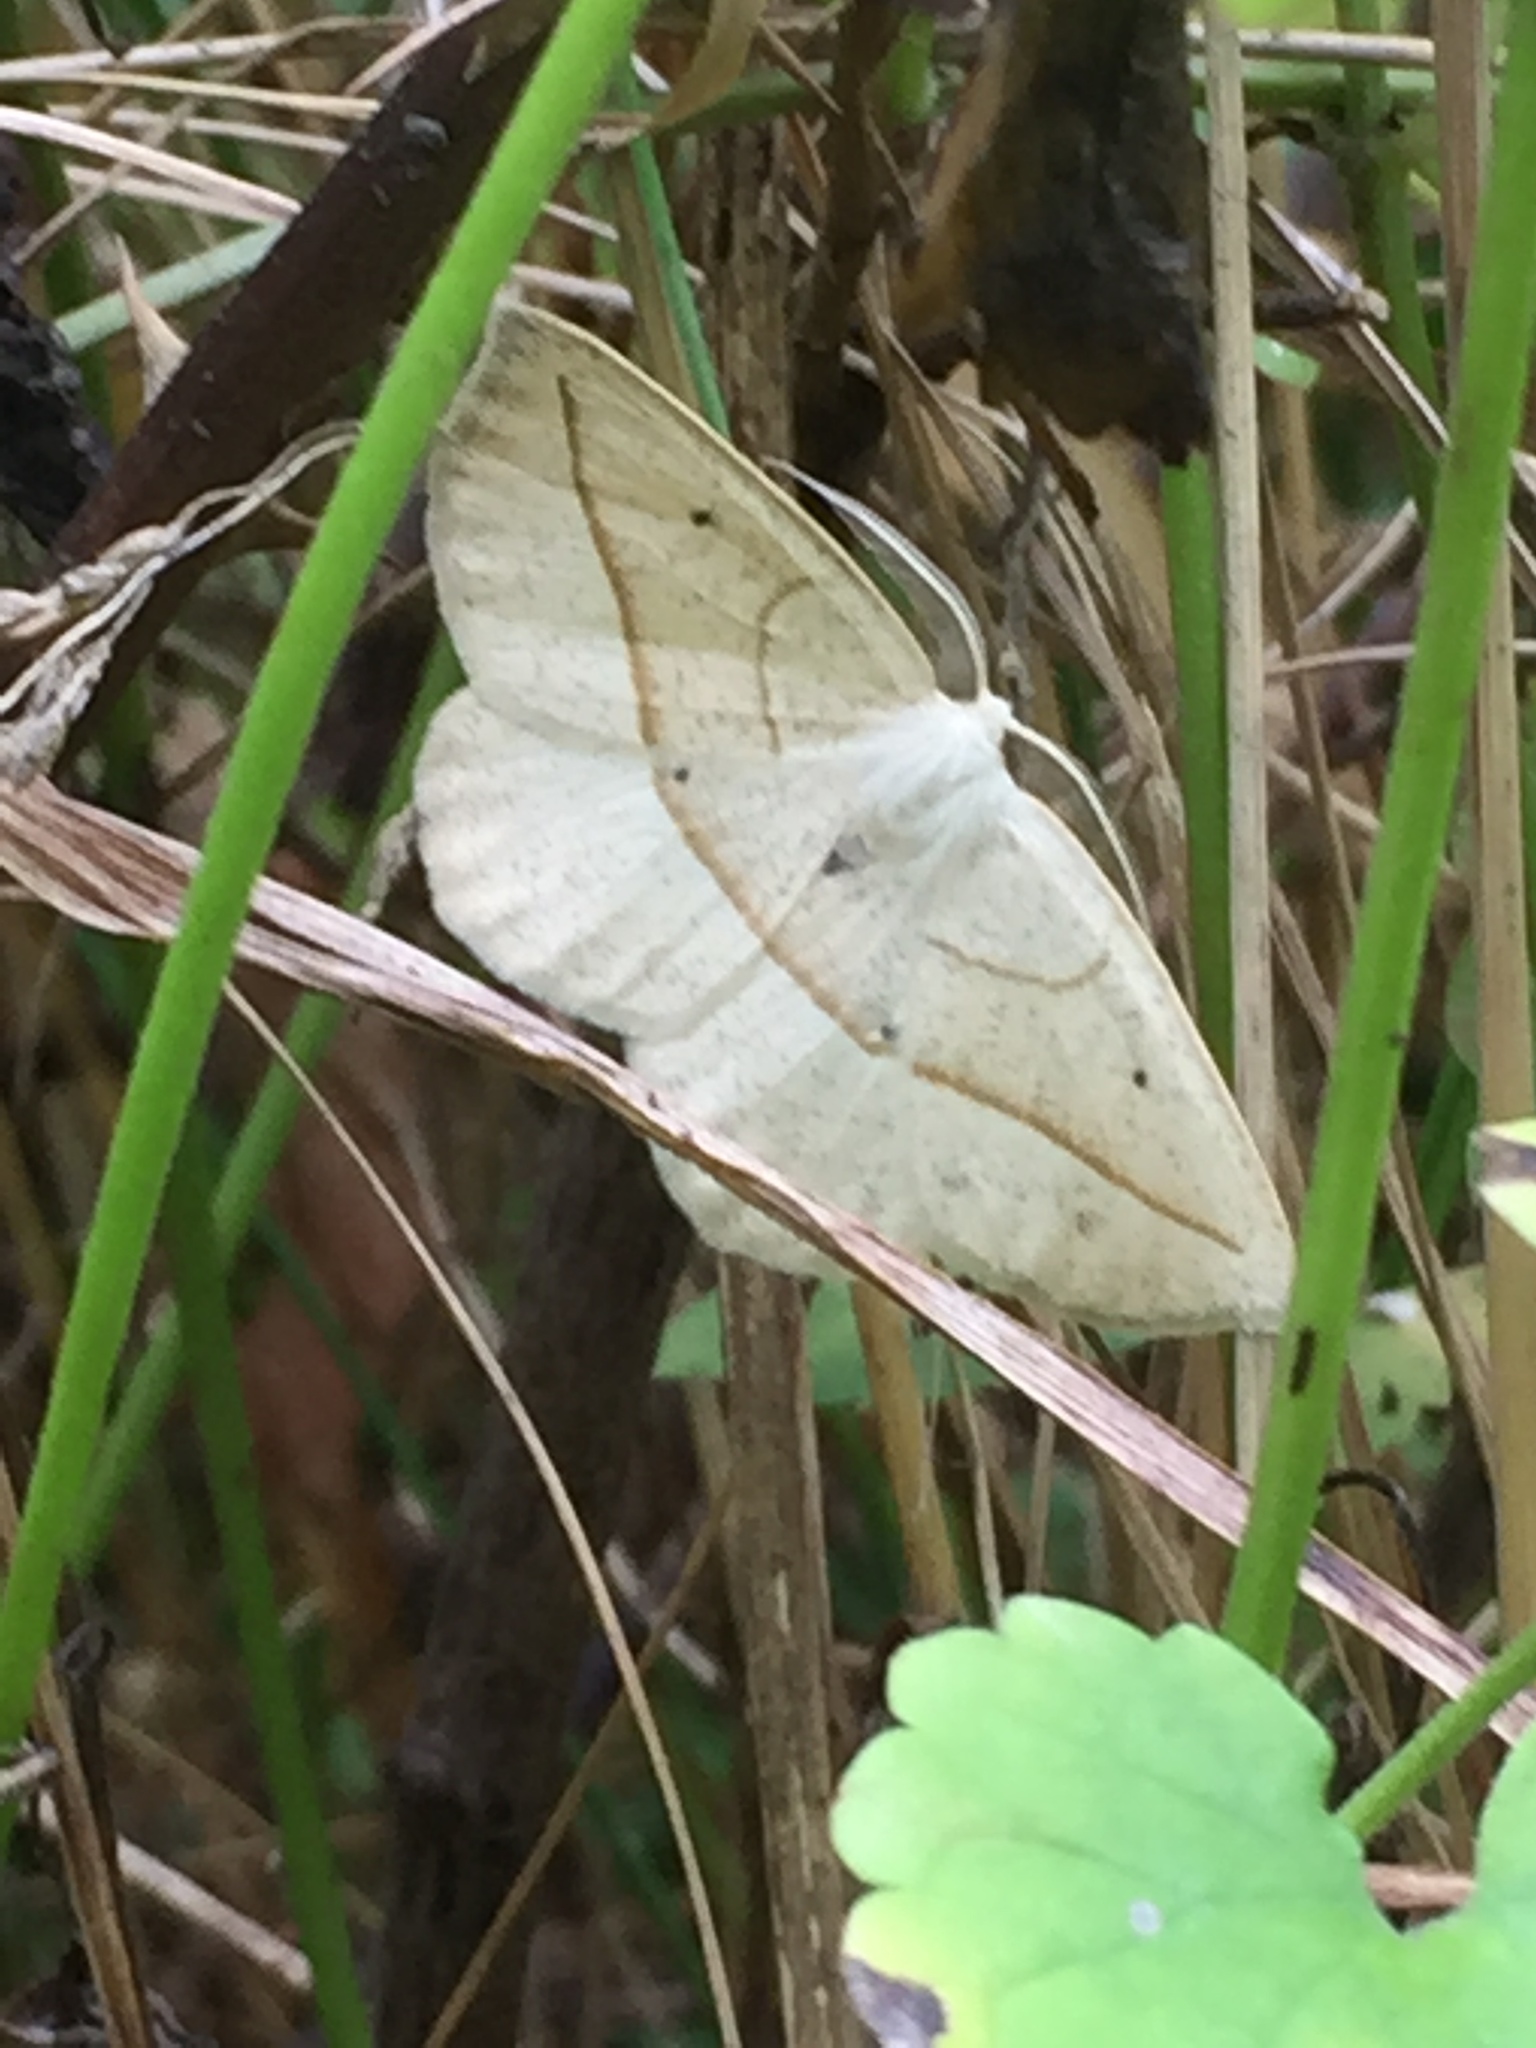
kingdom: Animalia
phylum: Arthropoda
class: Insecta
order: Lepidoptera
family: Geometridae
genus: Eusarca
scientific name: Eusarca confusaria
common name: Confused eusarca
